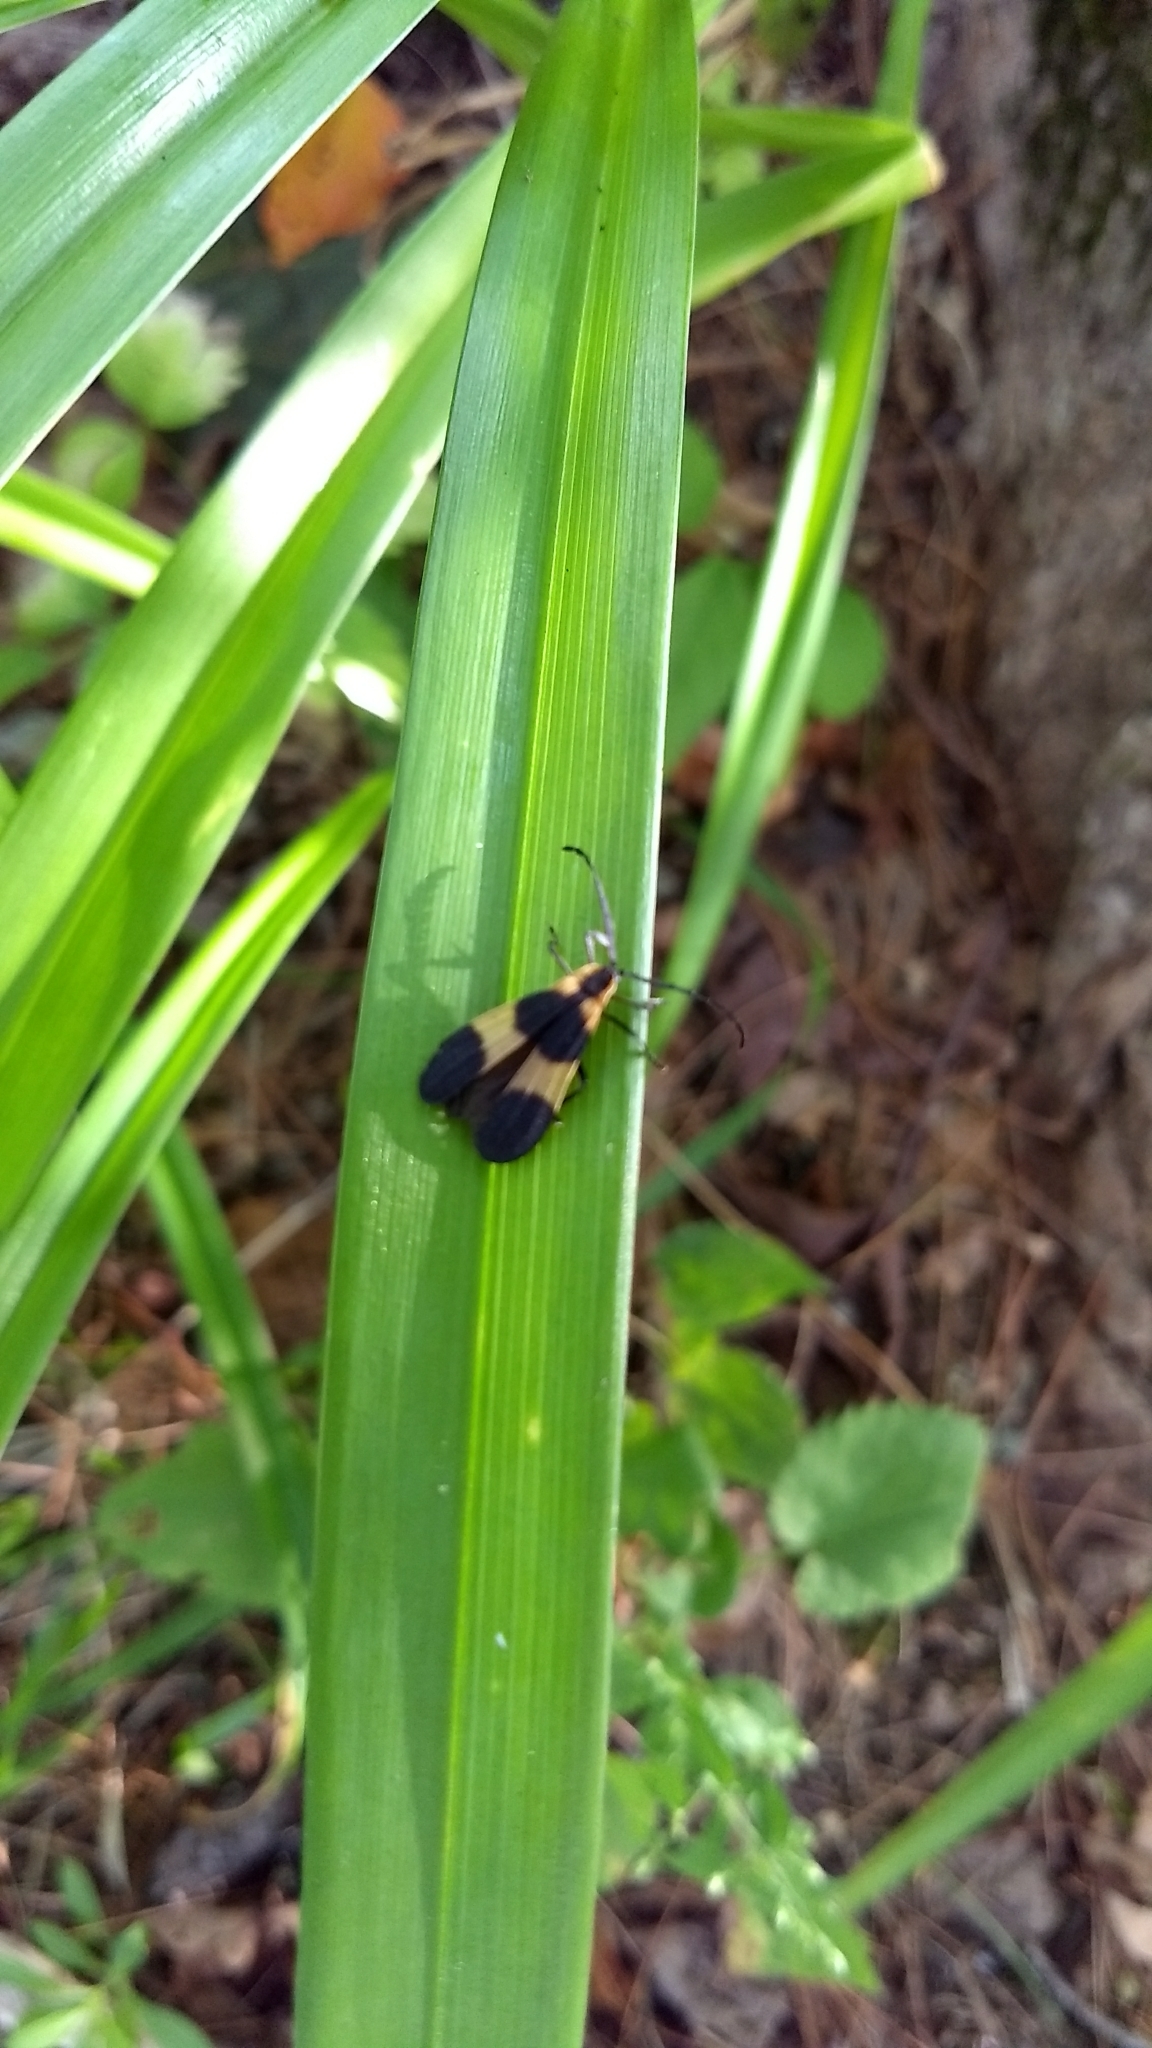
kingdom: Animalia
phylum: Arthropoda
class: Insecta
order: Coleoptera
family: Lycidae
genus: Calopteron
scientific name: Calopteron reticulatum
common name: Banded net-winged beetle
